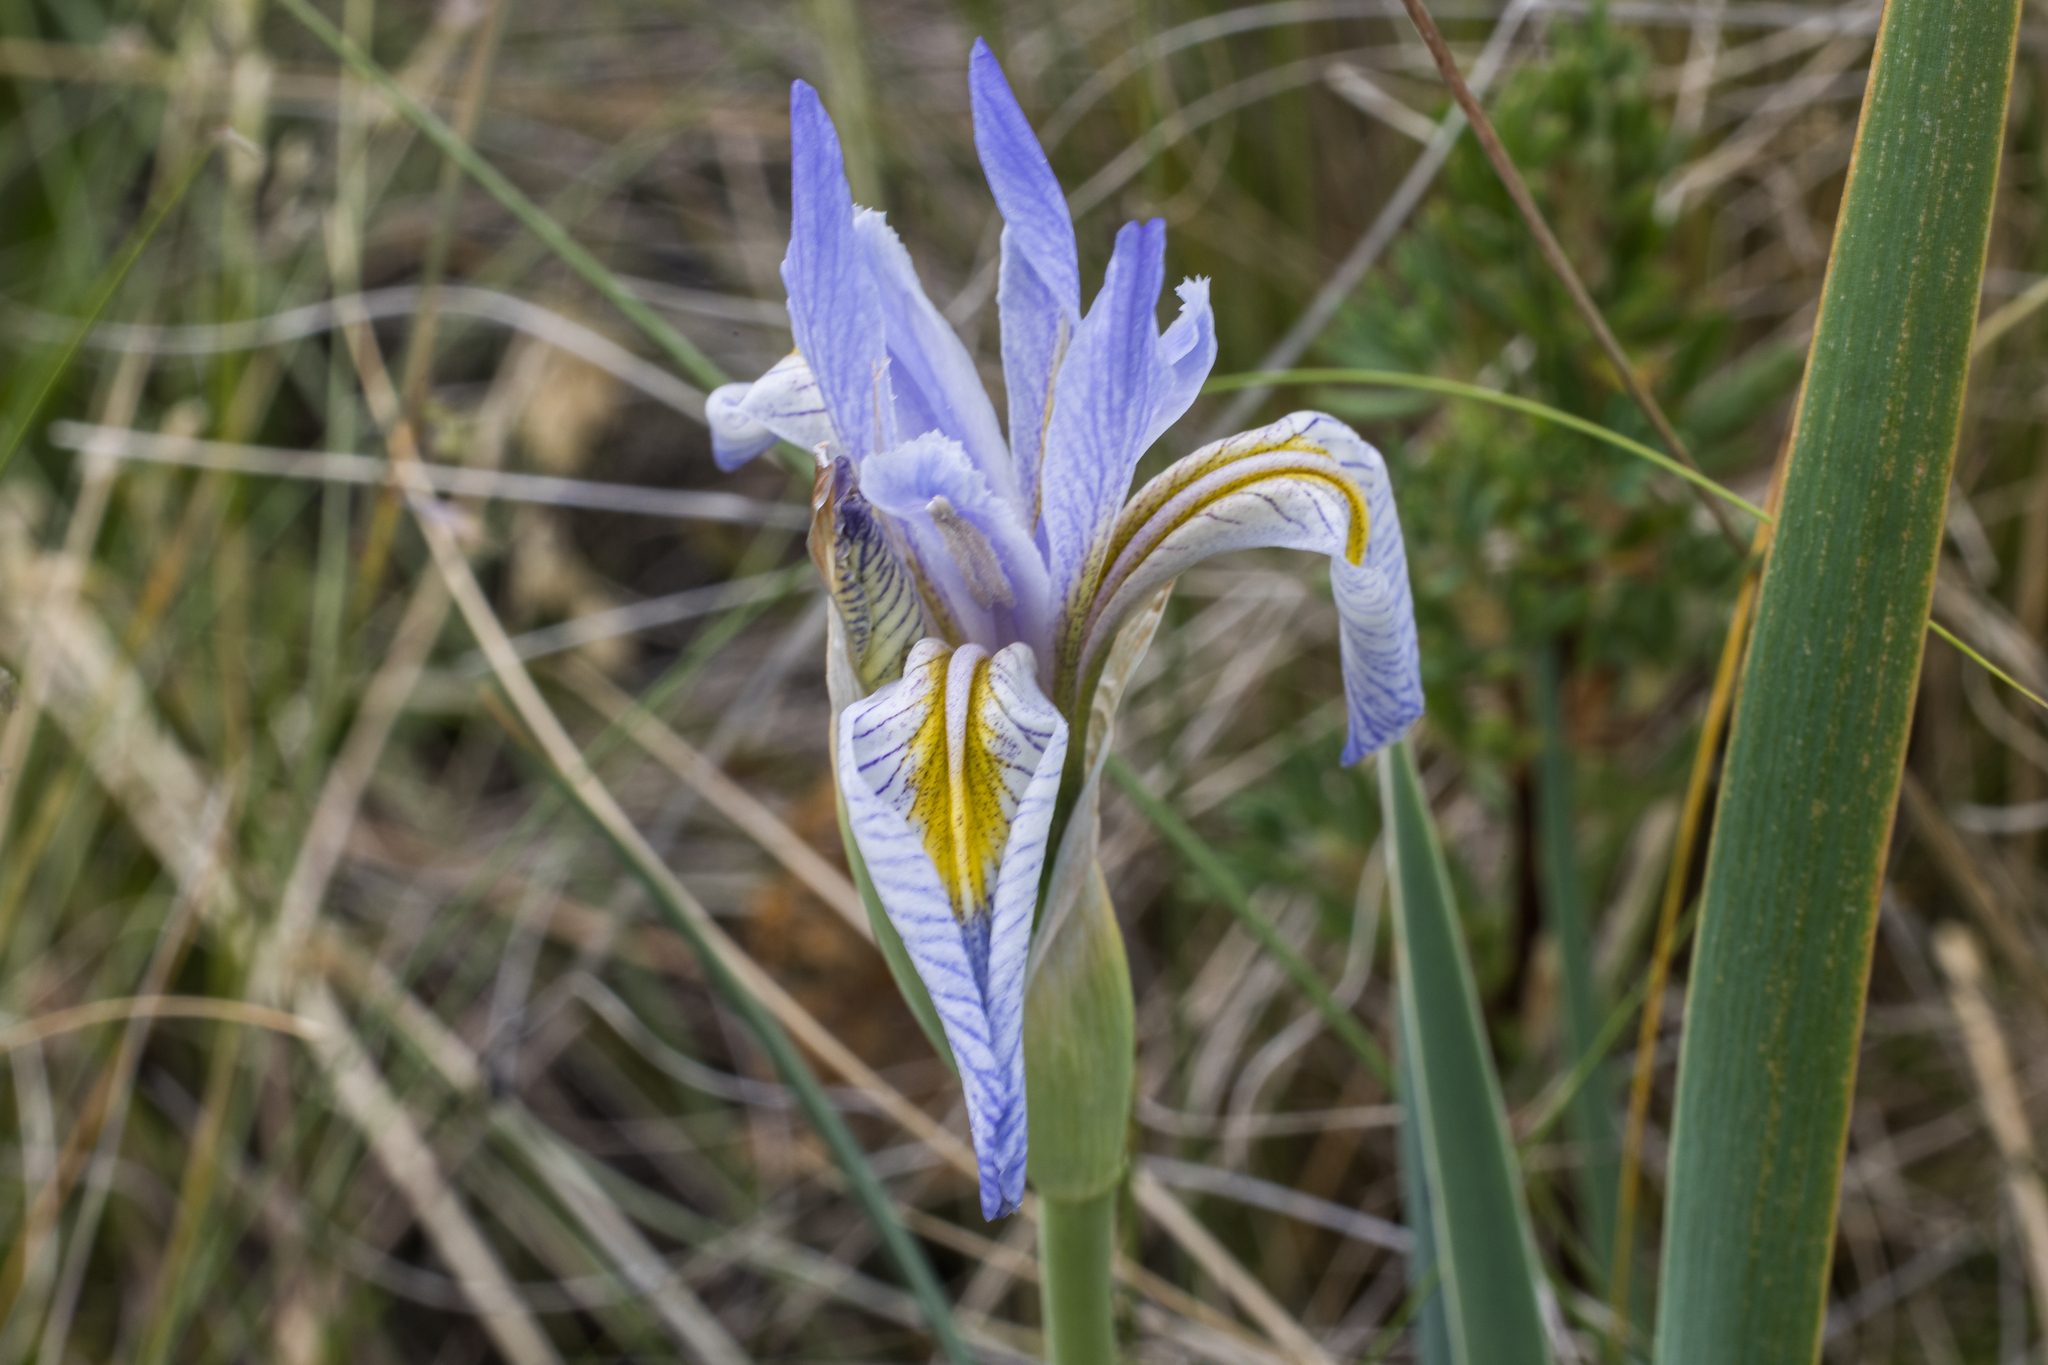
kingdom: Plantae
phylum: Tracheophyta
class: Liliopsida
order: Asparagales
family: Iridaceae
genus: Iris
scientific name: Iris missouriensis
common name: Rocky mountain iris
